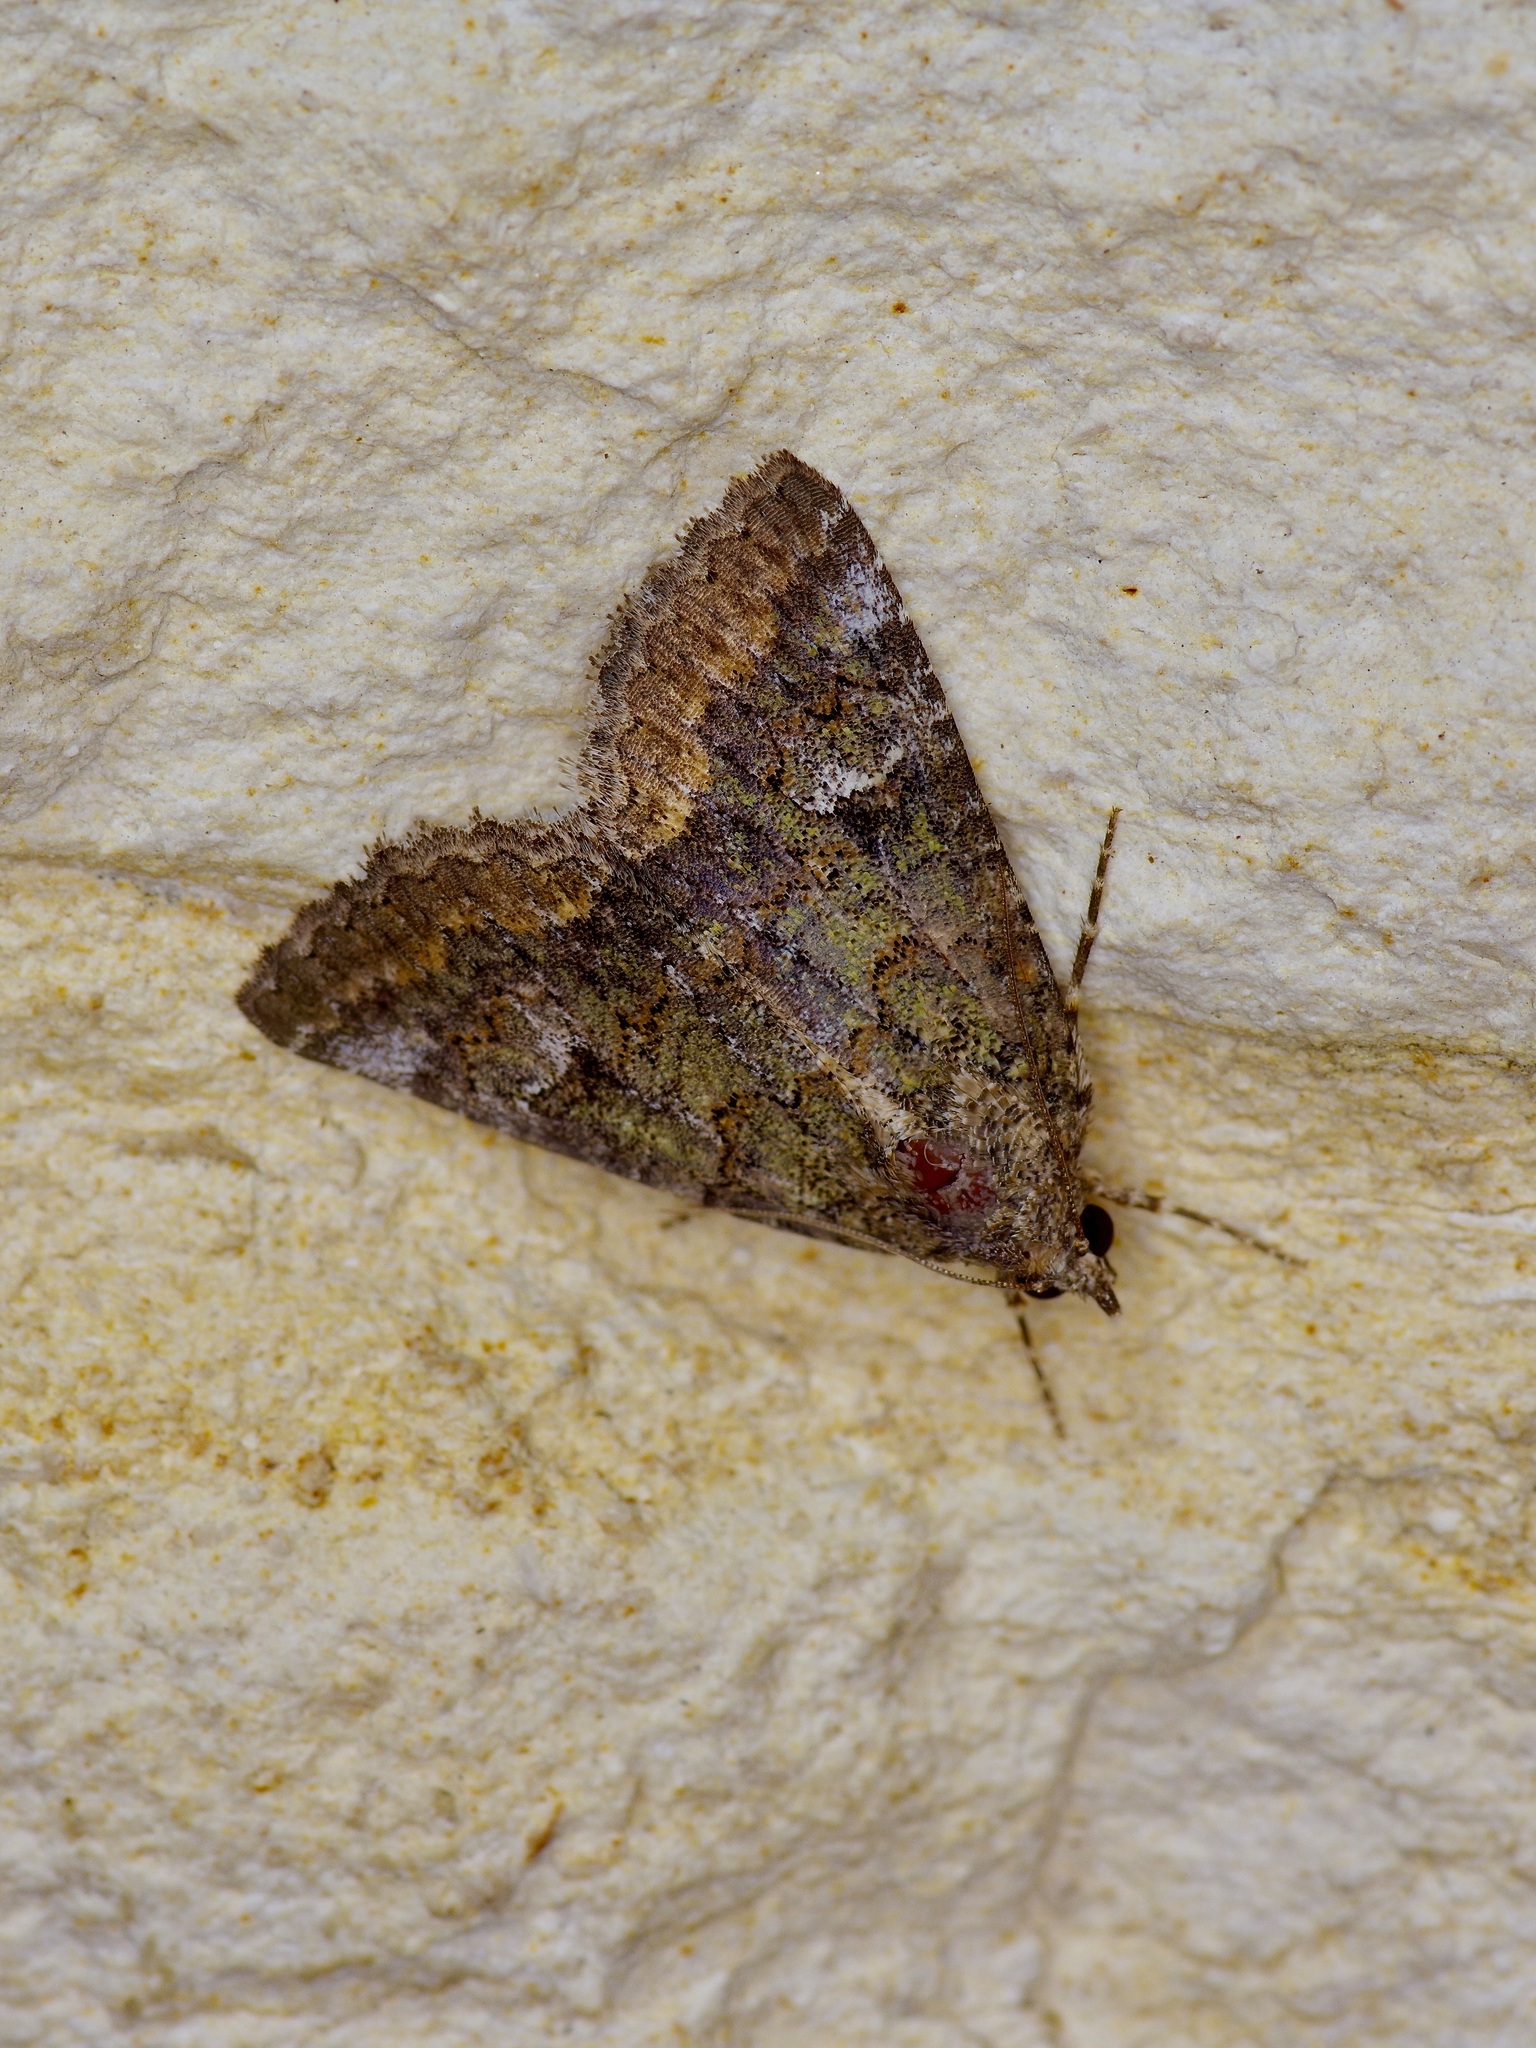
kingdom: Animalia
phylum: Arthropoda
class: Insecta
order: Lepidoptera
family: Erebidae
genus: Eubolina
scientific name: Eubolina impartialis
